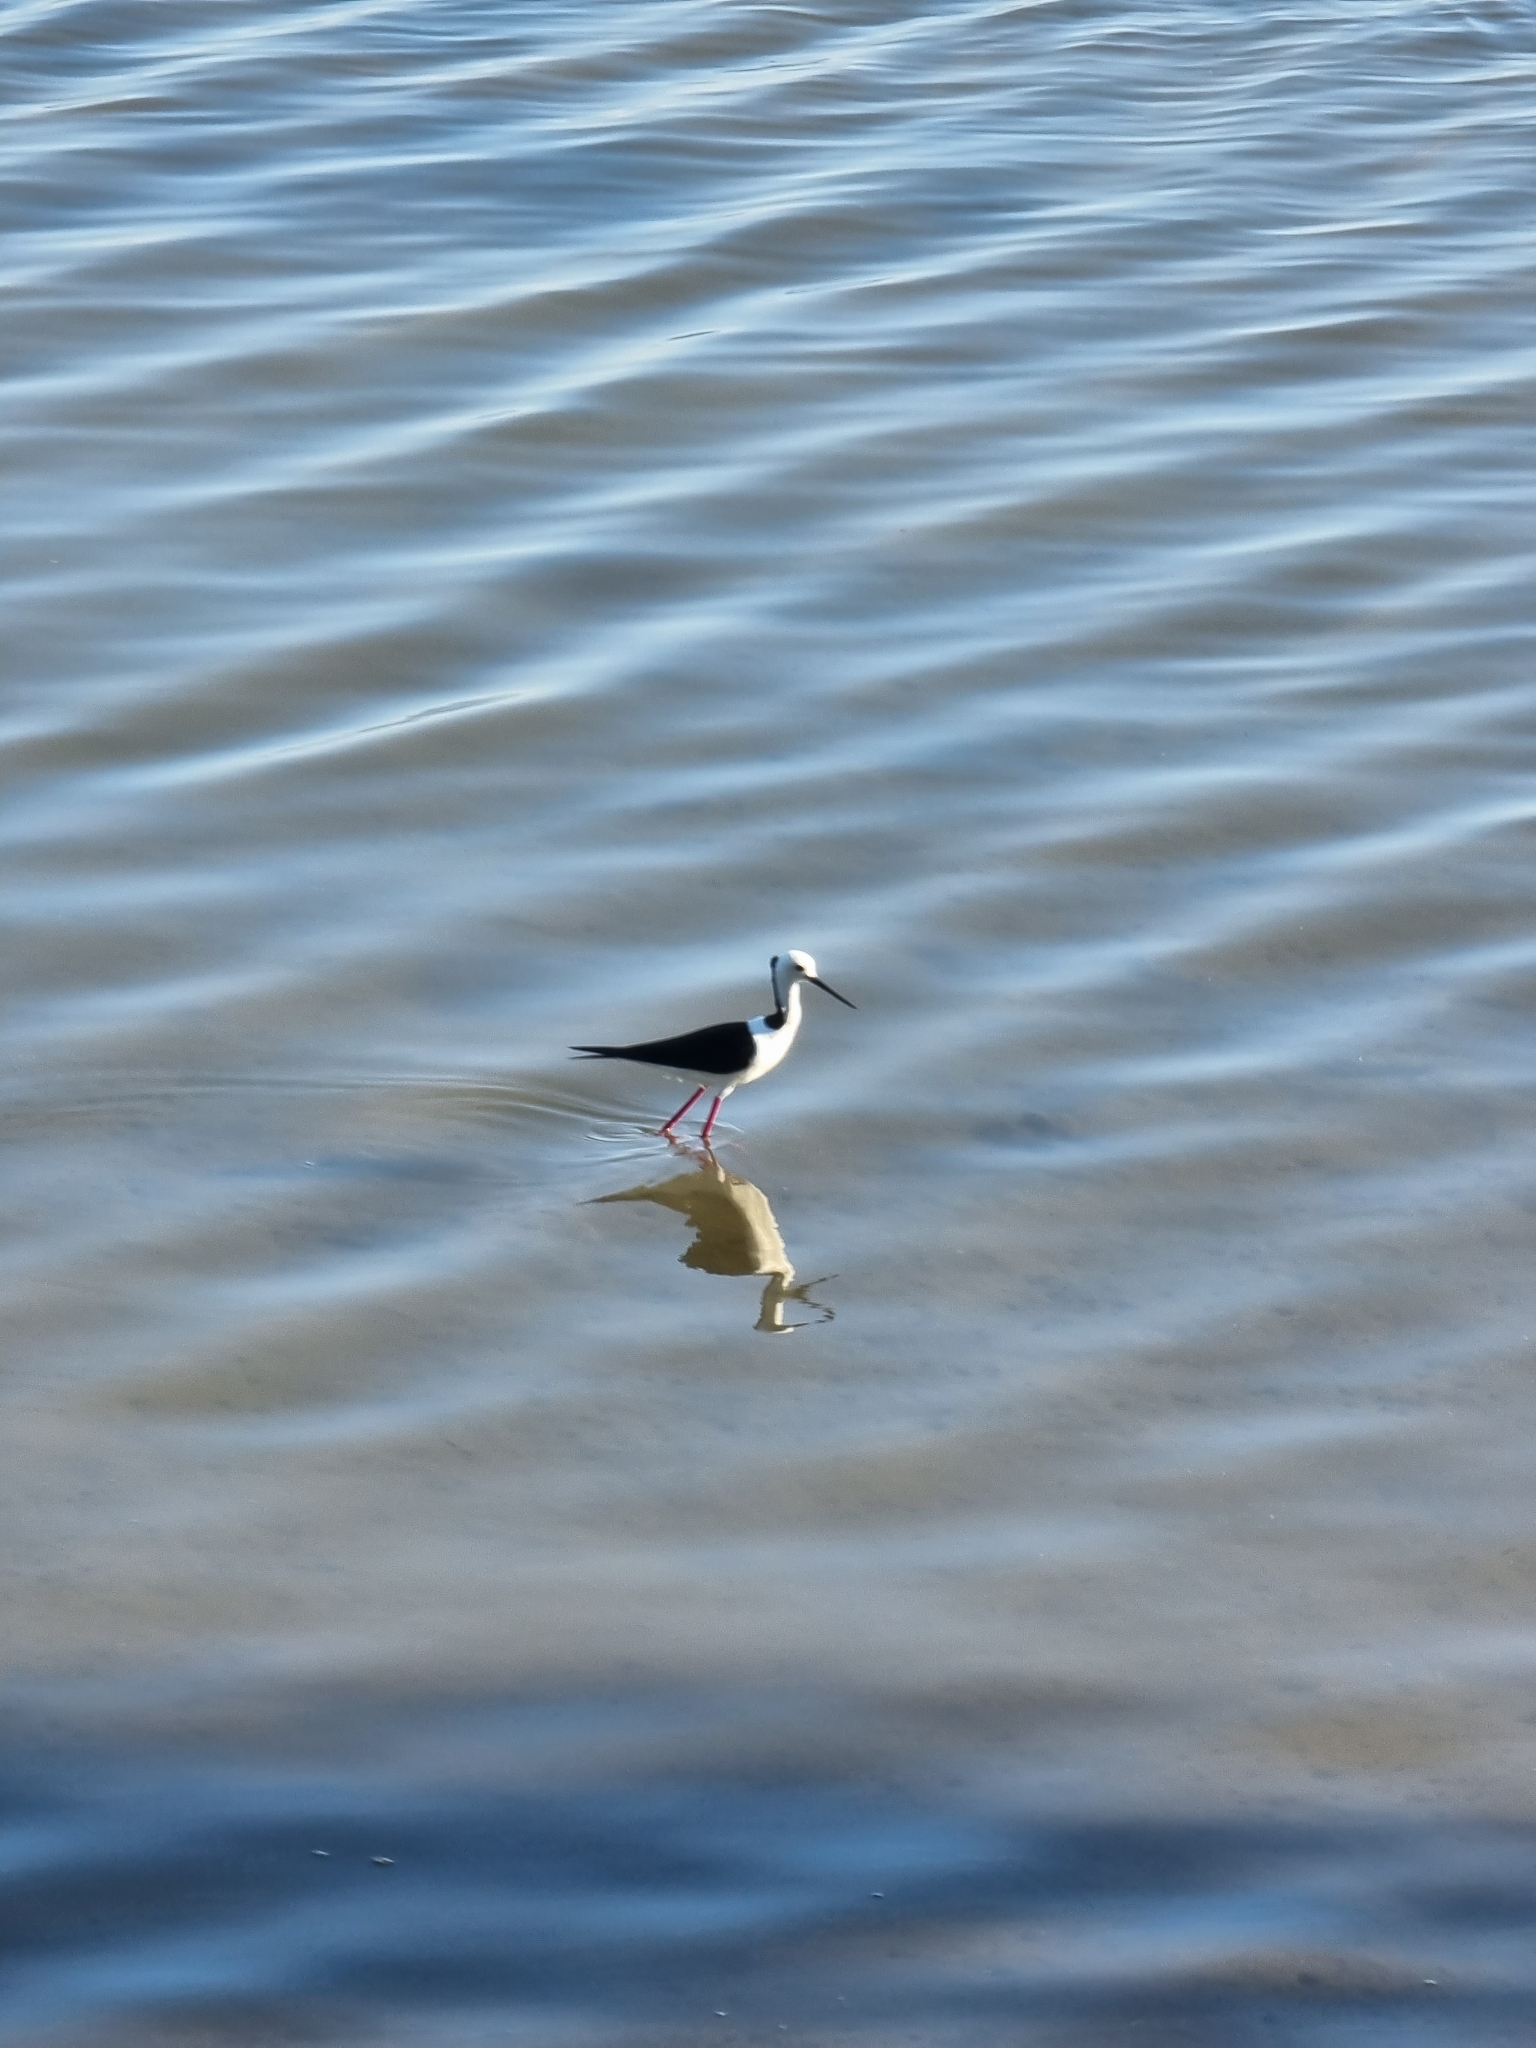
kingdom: Animalia
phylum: Chordata
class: Aves
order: Charadriiformes
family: Recurvirostridae
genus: Himantopus
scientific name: Himantopus leucocephalus
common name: White-headed stilt
